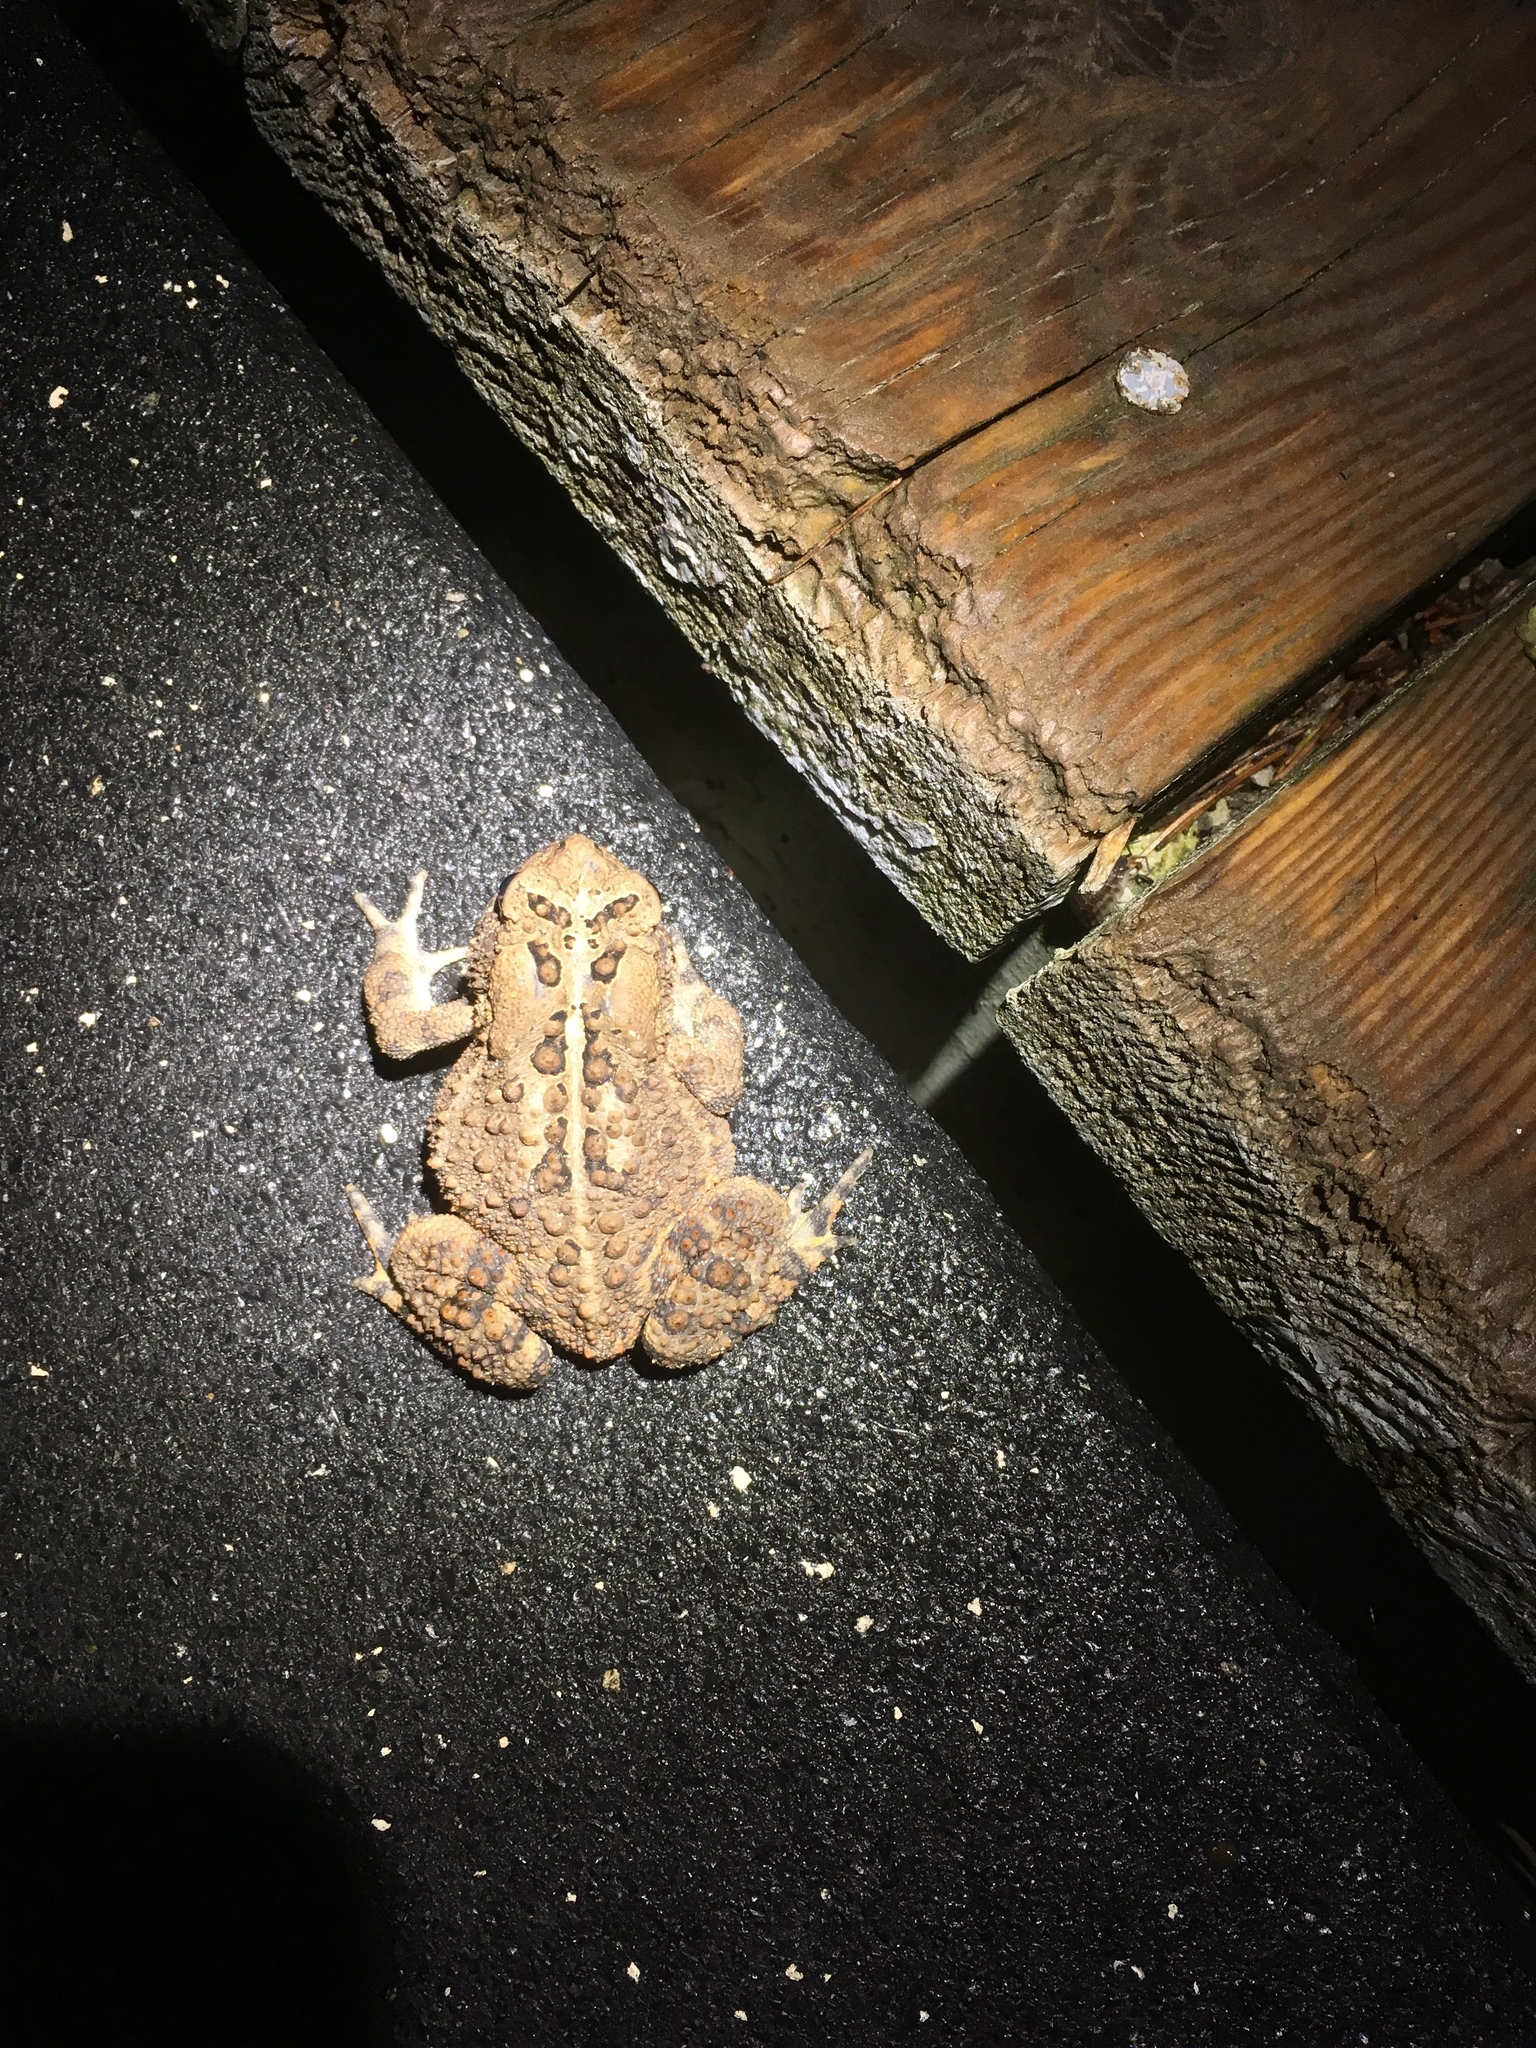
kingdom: Animalia
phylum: Chordata
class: Amphibia
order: Anura
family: Bufonidae
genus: Anaxyrus
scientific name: Anaxyrus americanus
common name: American toad
